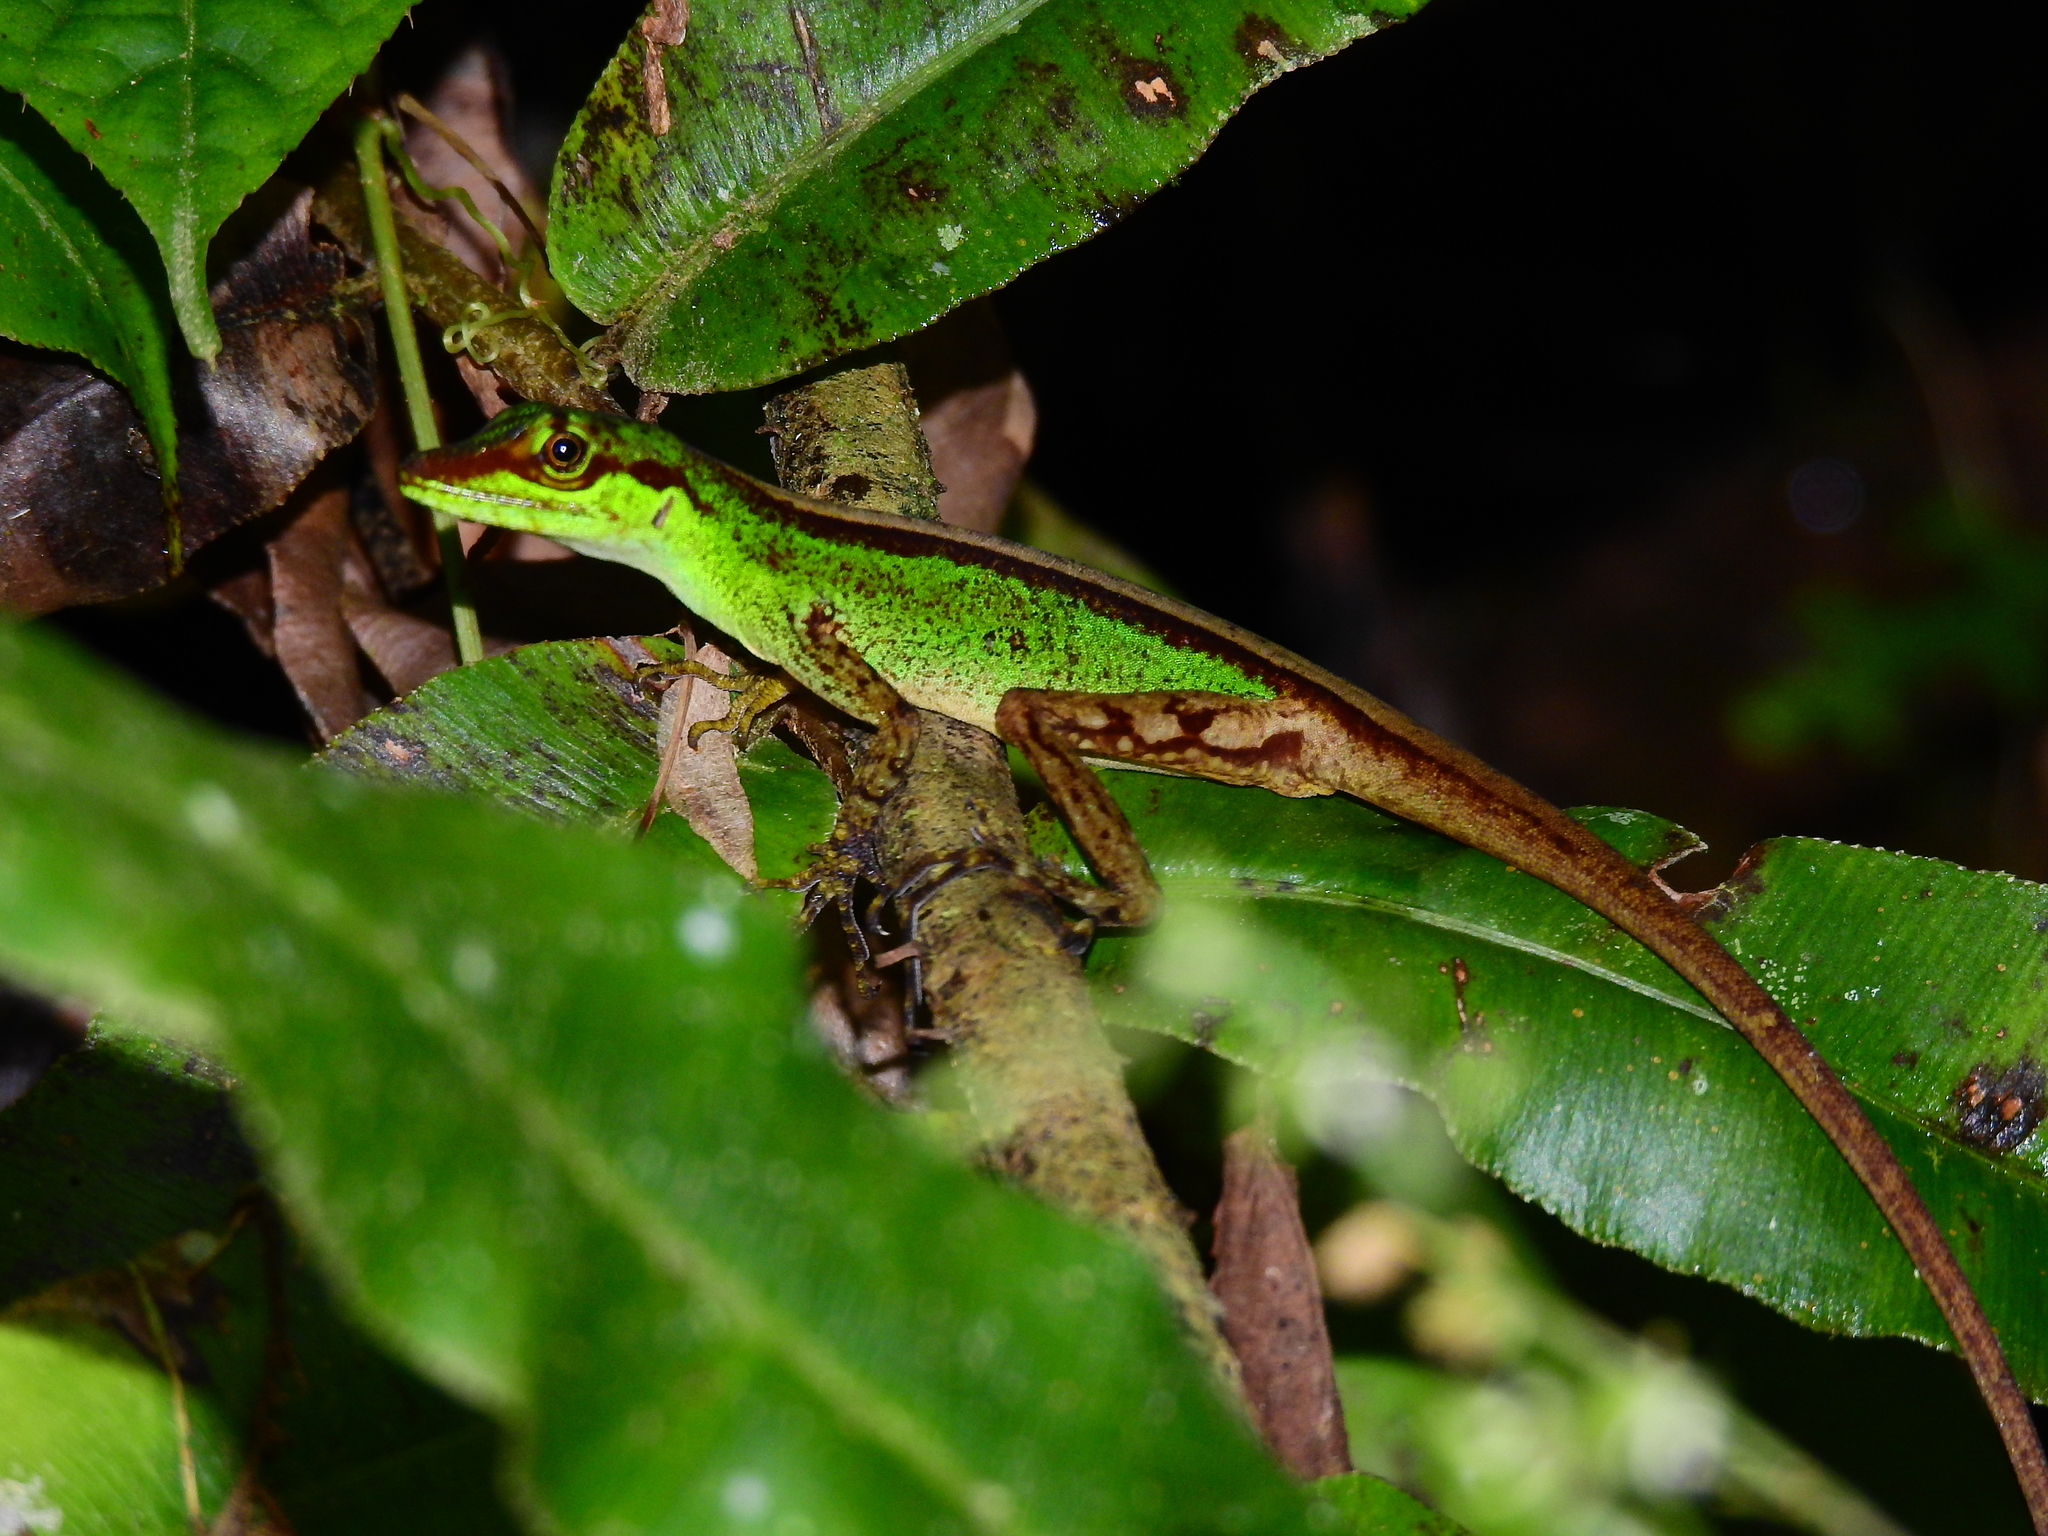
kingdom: Animalia
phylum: Chordata
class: Squamata
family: Dactyloidae
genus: Anolis
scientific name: Anolis ventrimaculatus
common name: Speckled anole
